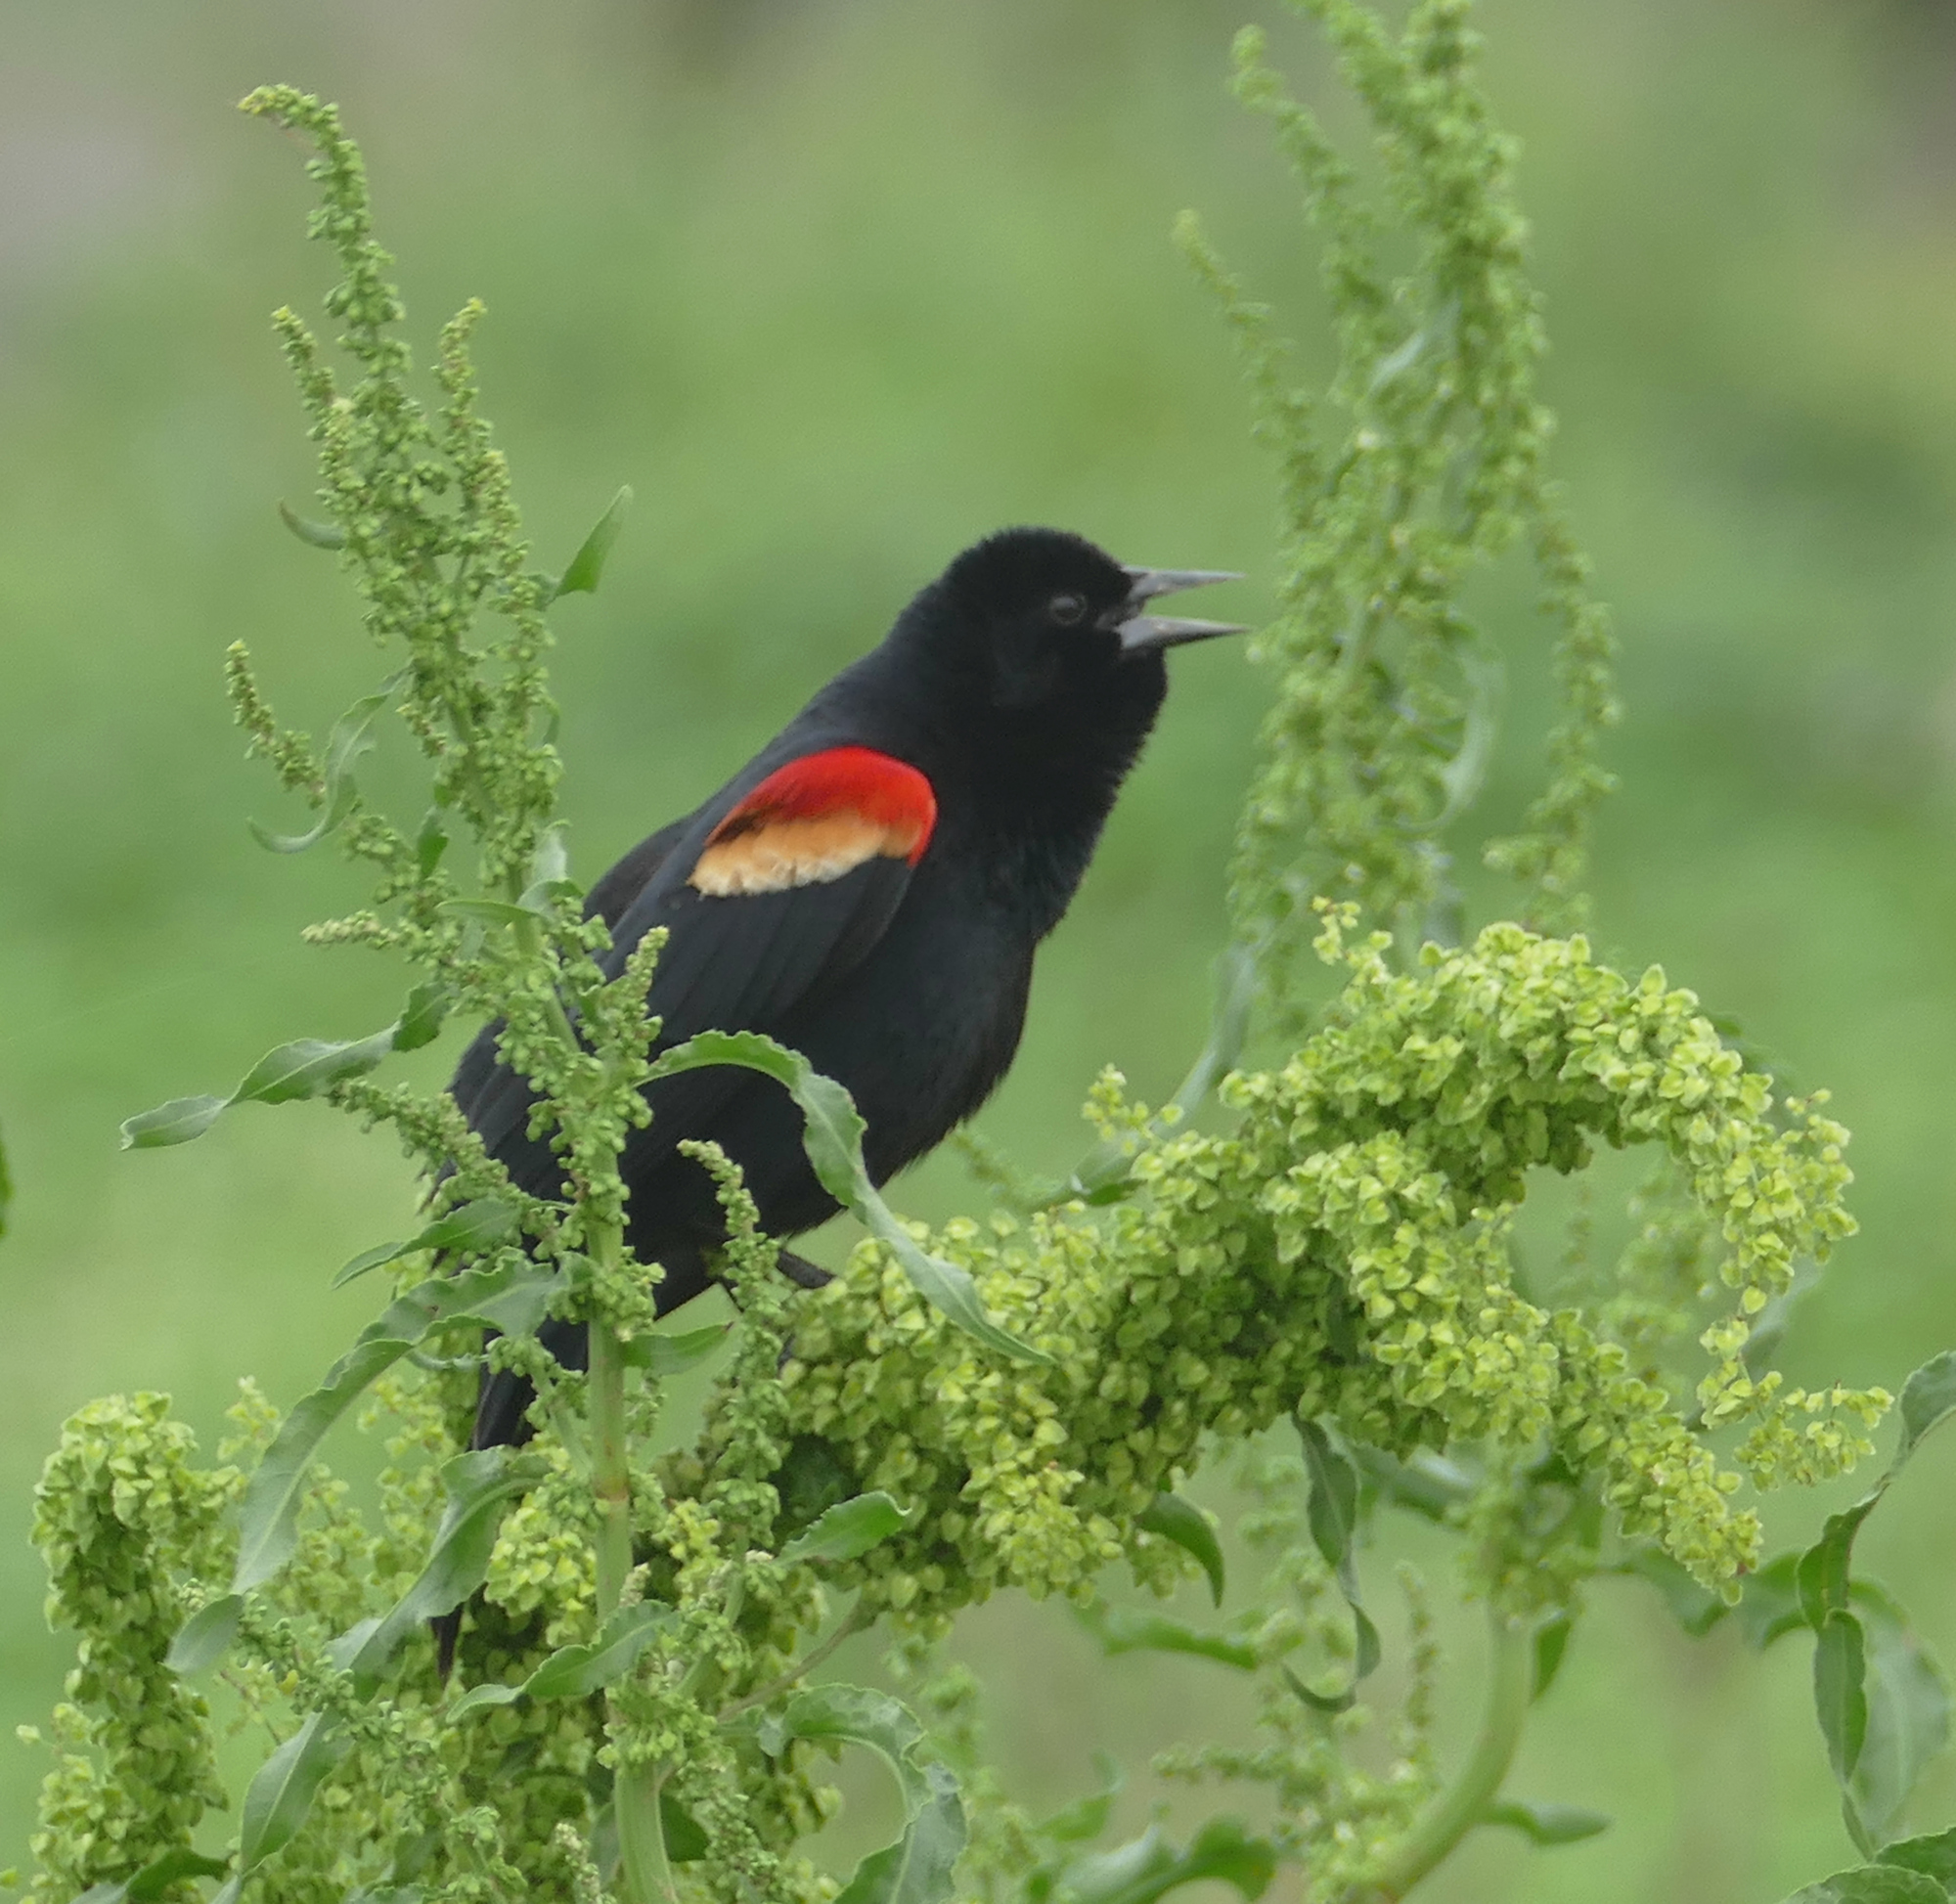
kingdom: Animalia
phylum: Chordata
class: Aves
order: Passeriformes
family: Icteridae
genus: Agelaius
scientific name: Agelaius phoeniceus
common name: Red-winged blackbird
